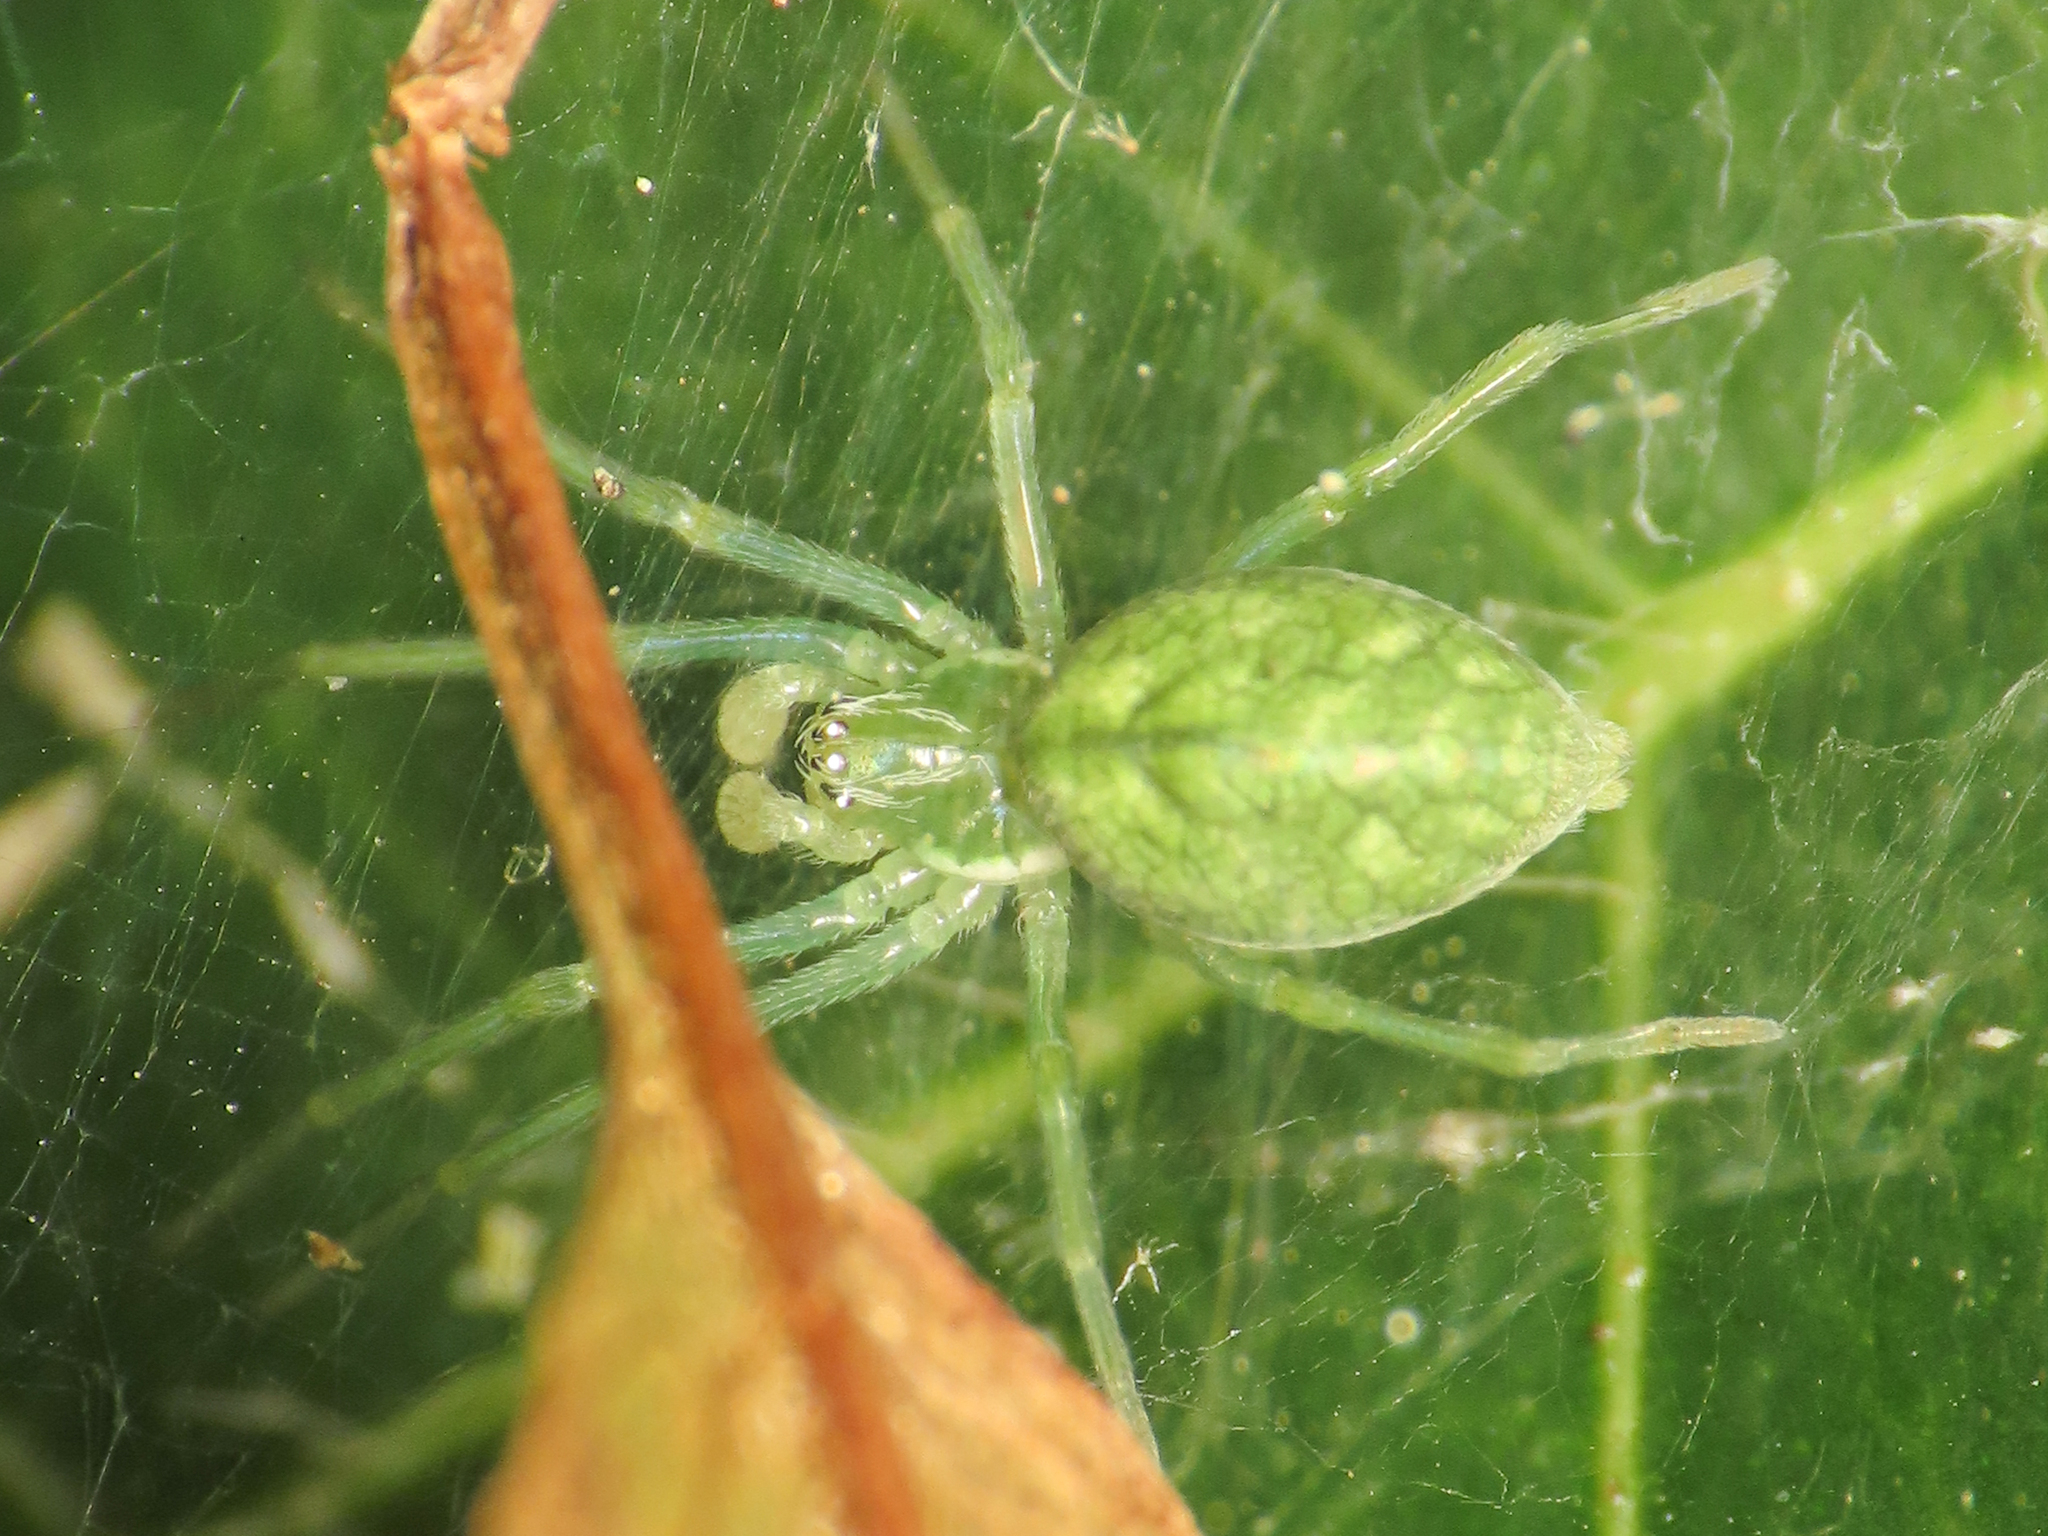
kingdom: Animalia
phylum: Arthropoda
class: Arachnida
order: Araneae
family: Dictynidae
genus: Nigma
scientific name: Nigma walckenaeri
